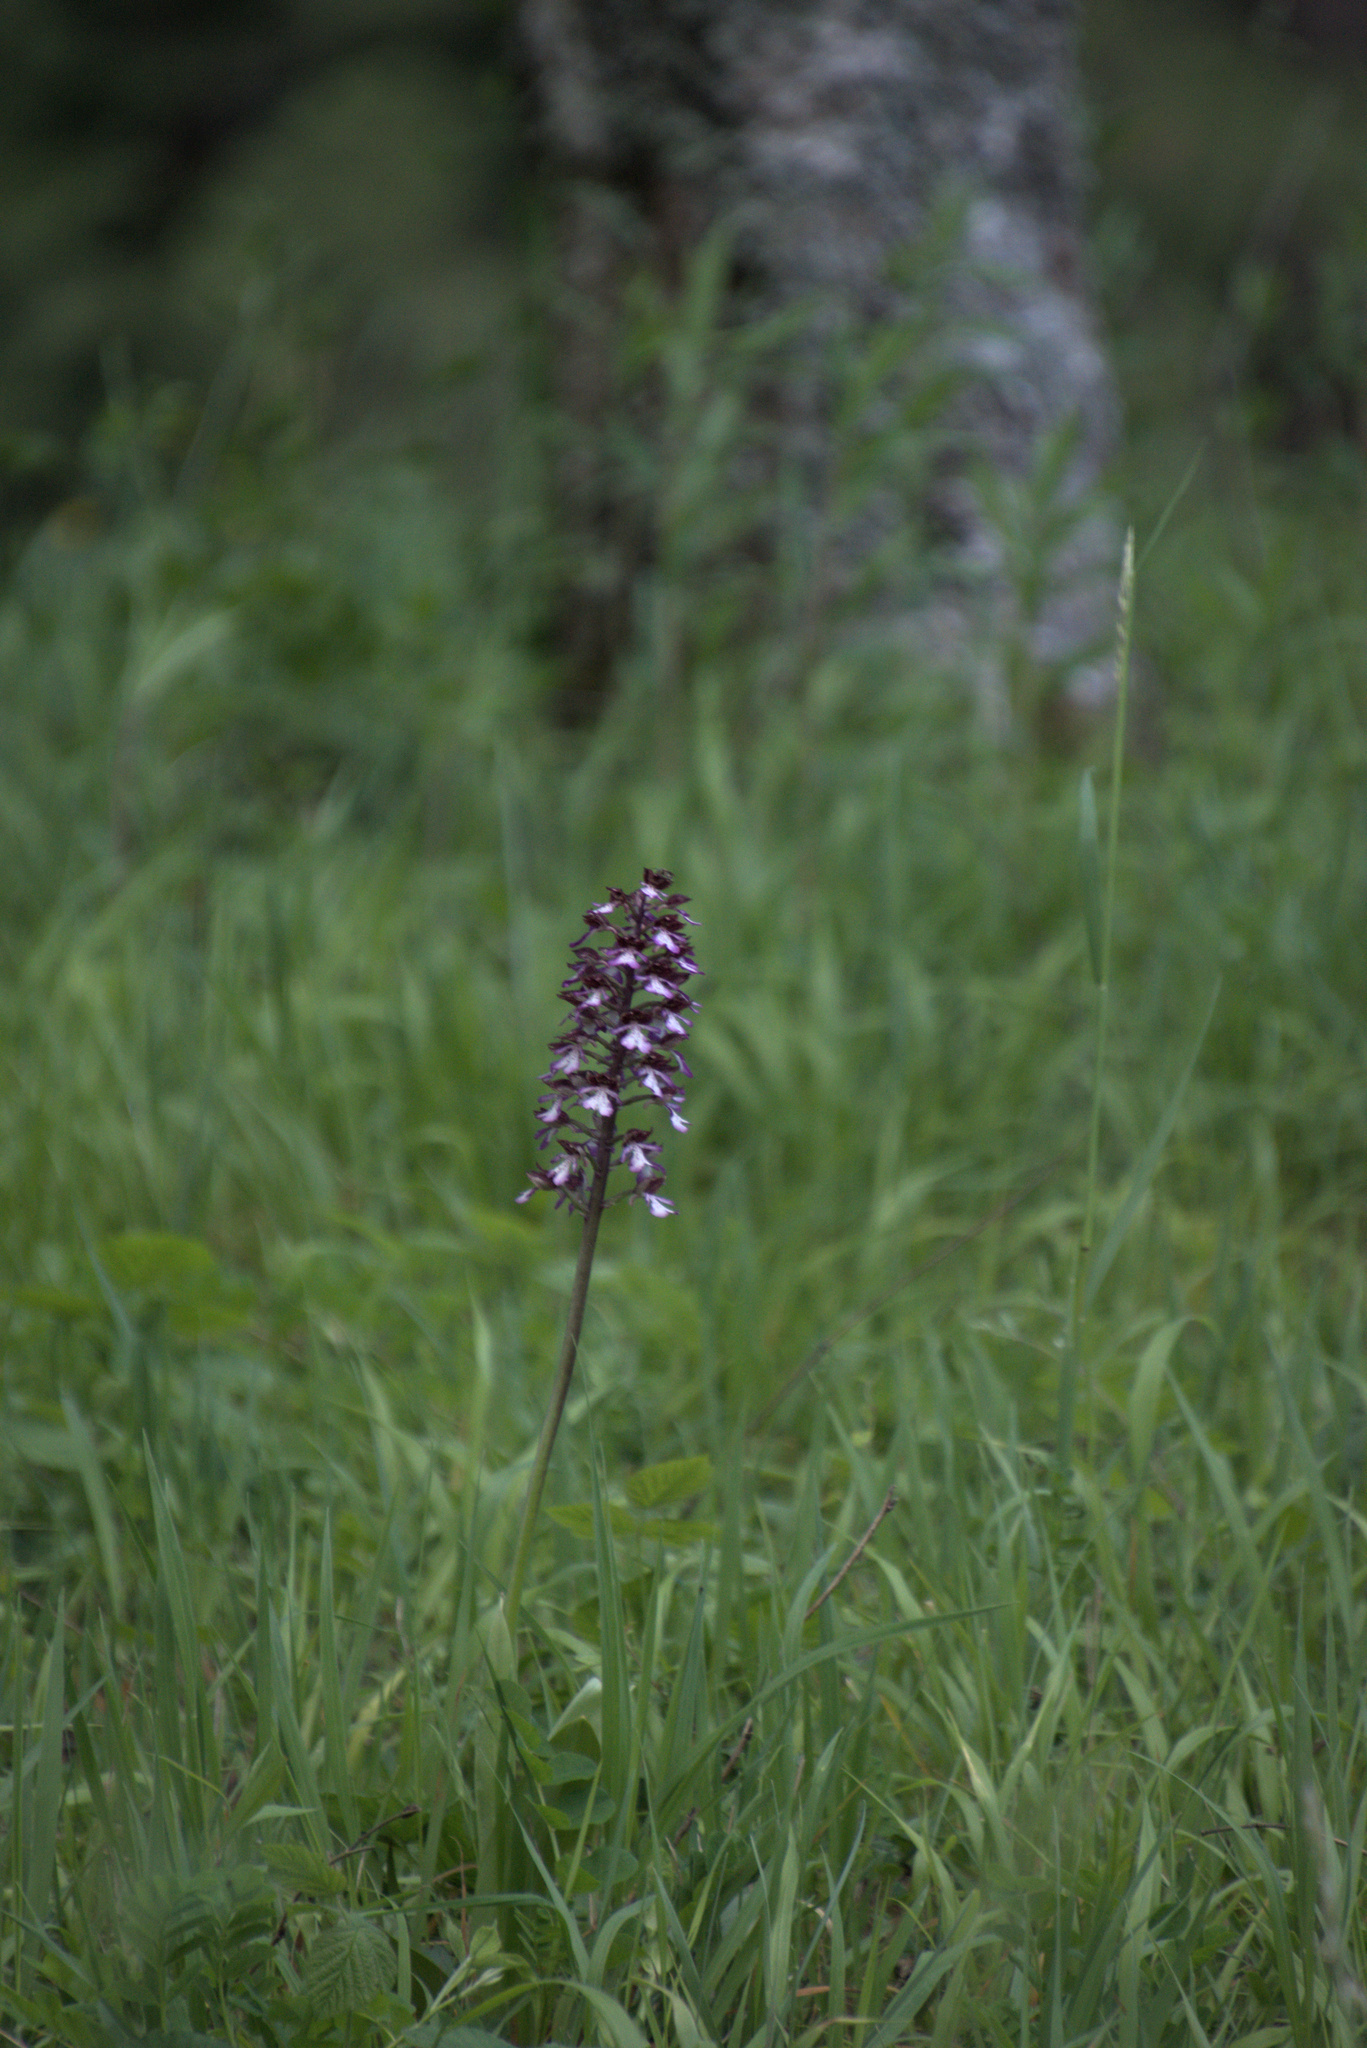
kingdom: Plantae
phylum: Tracheophyta
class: Liliopsida
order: Asparagales
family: Orchidaceae
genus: Orchis
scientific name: Orchis purpurea
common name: Lady orchid
